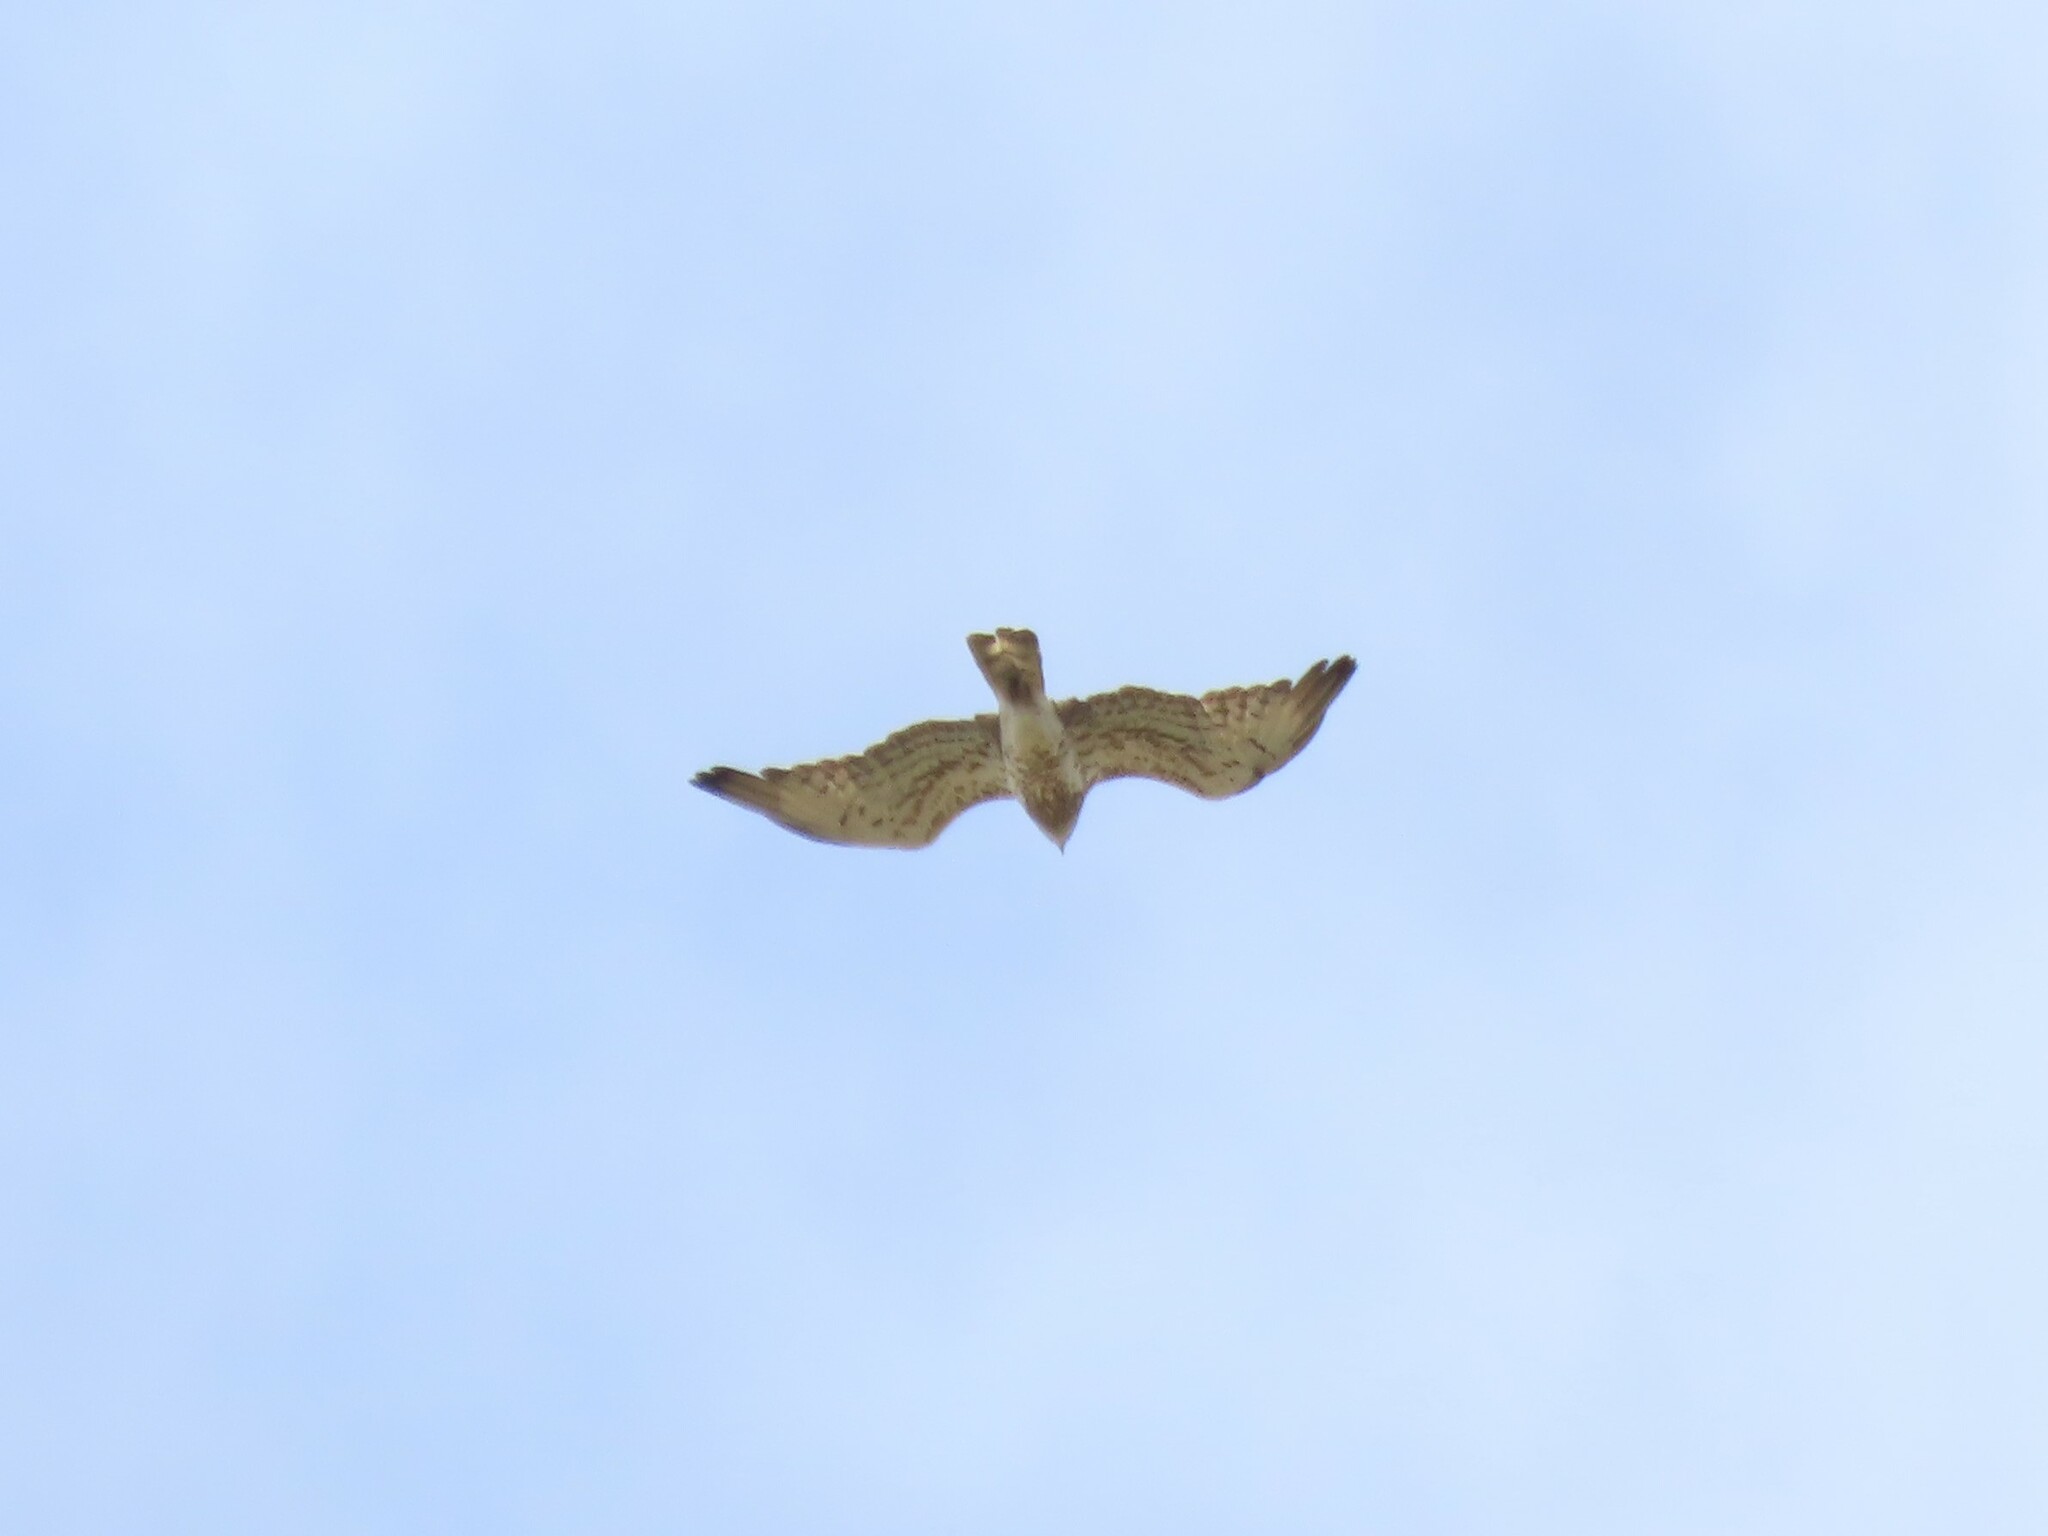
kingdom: Animalia
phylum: Chordata
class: Aves
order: Accipitriformes
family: Accipitridae
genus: Circaetus
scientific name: Circaetus gallicus
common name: Short-toed snake eagle
